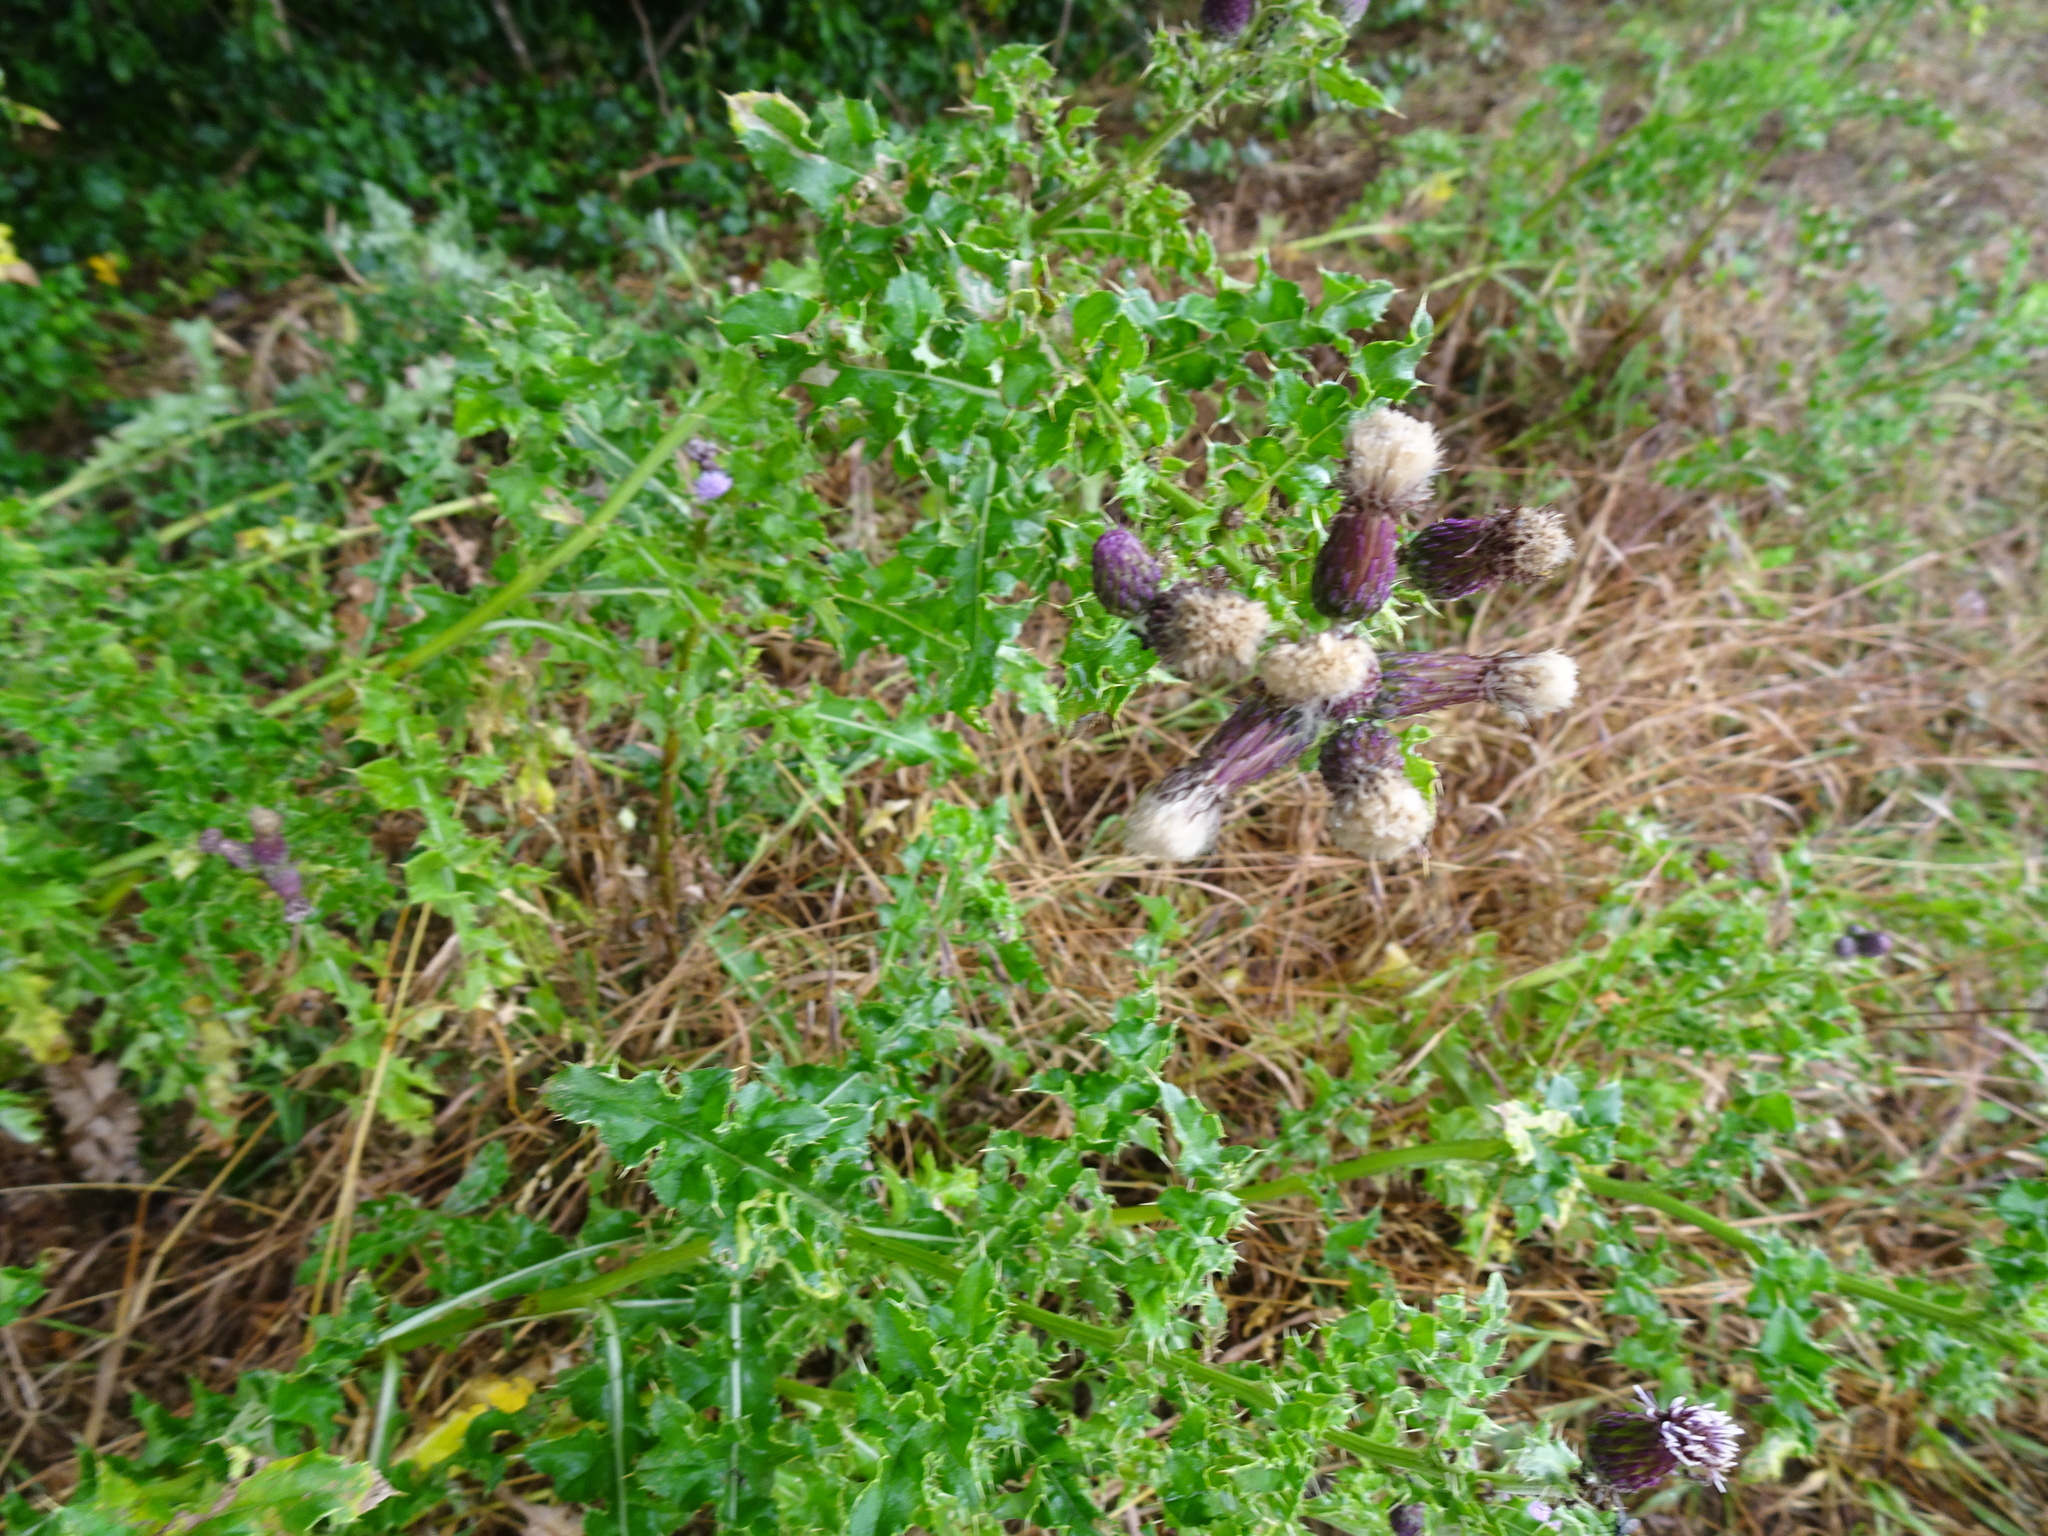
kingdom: Plantae
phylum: Tracheophyta
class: Magnoliopsida
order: Asterales
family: Asteraceae
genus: Cirsium
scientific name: Cirsium arvense
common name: Creeping thistle
